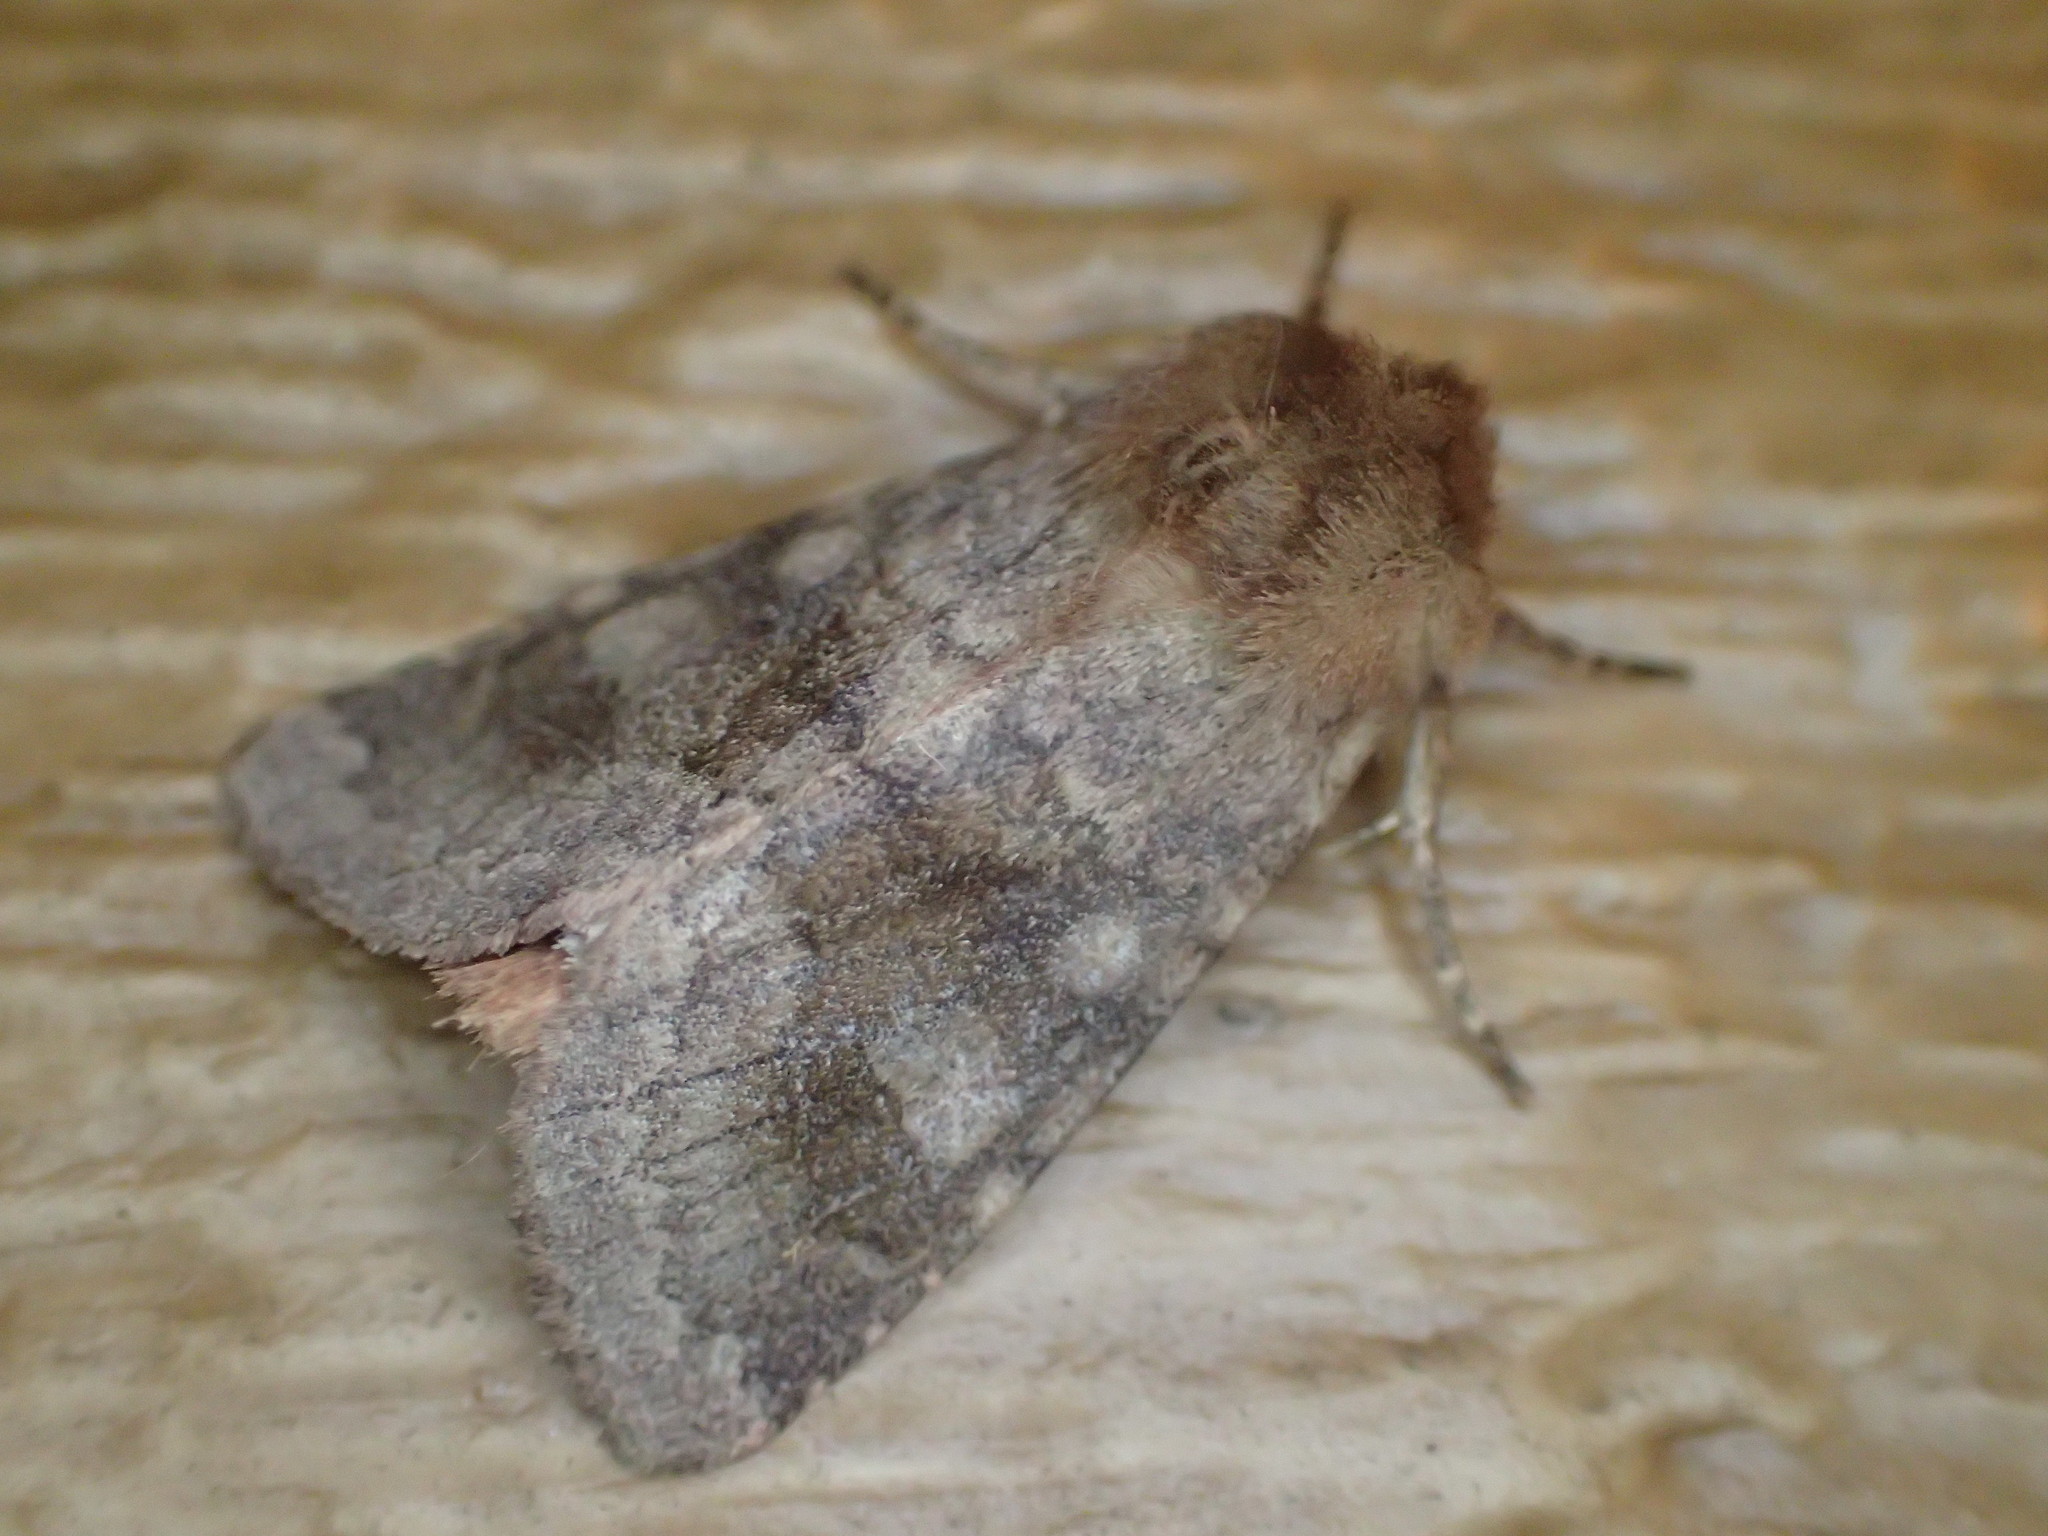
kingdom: Animalia
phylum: Arthropoda
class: Insecta
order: Lepidoptera
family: Noctuidae
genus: Nephelodes
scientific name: Nephelodes minians
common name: Bronzed cutworm
